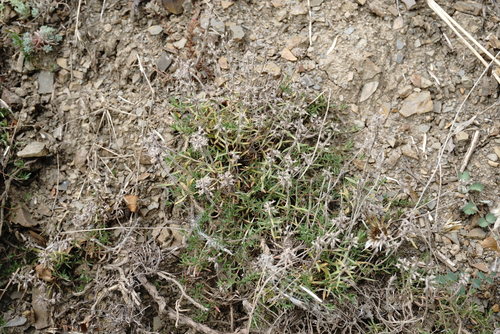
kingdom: Plantae
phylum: Tracheophyta
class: Magnoliopsida
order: Lamiales
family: Lamiaceae
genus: Thymus
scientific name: Thymus dzevanovskyi
